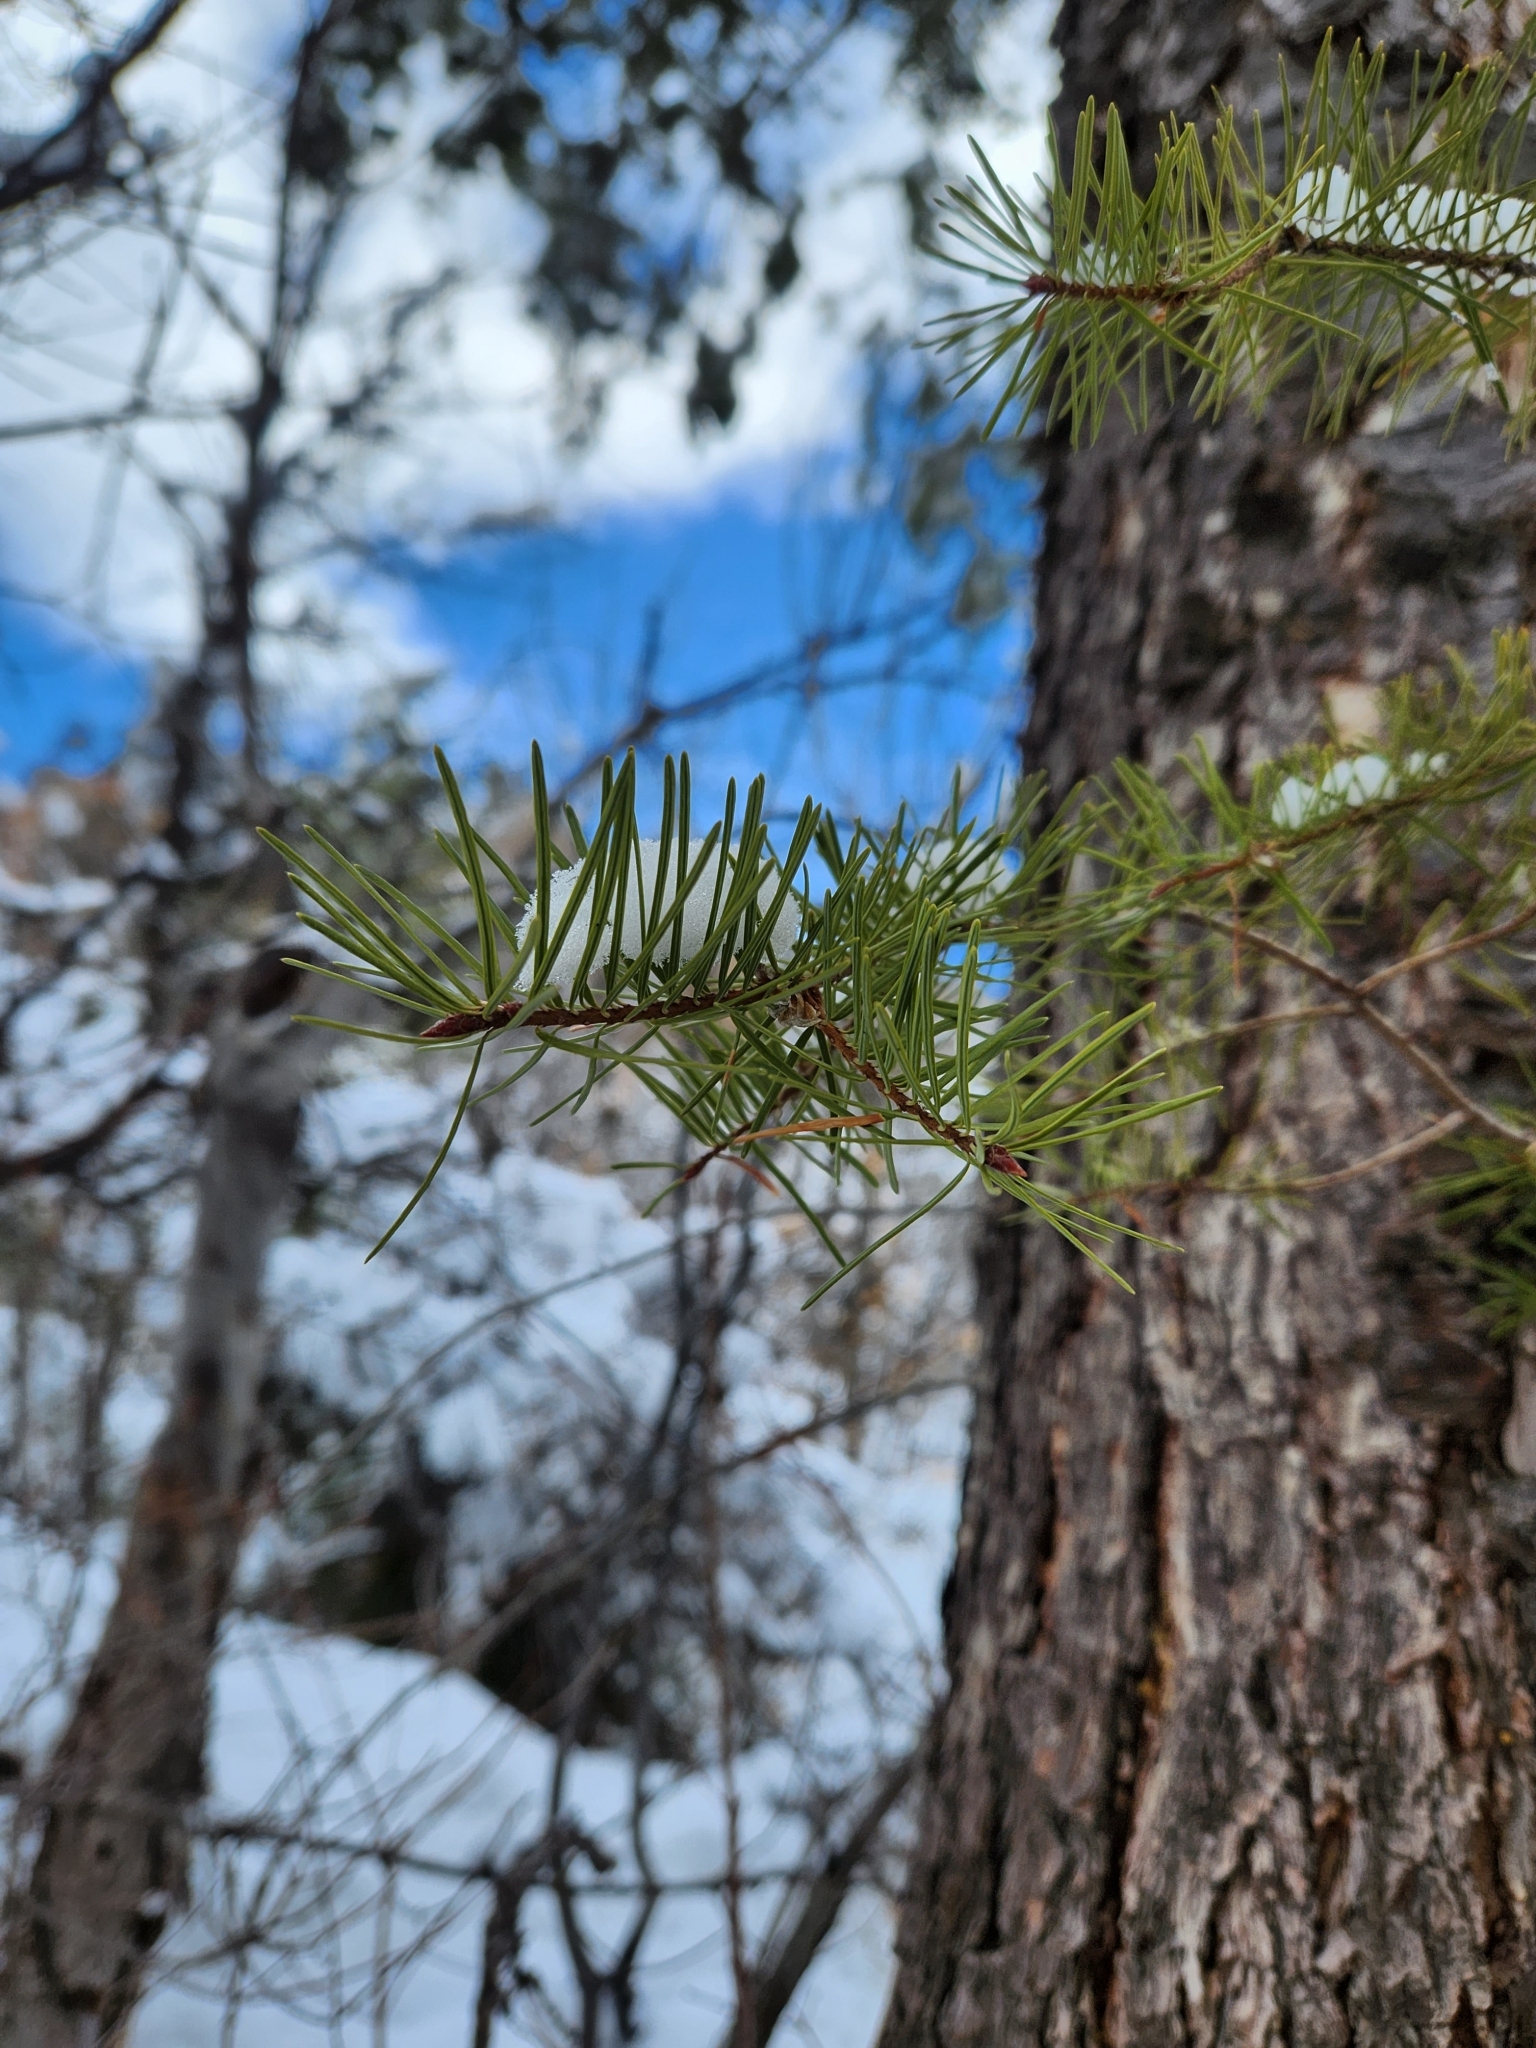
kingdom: Plantae
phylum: Tracheophyta
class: Pinopsida
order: Pinales
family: Pinaceae
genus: Pseudotsuga
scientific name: Pseudotsuga menziesii
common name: Douglas fir
